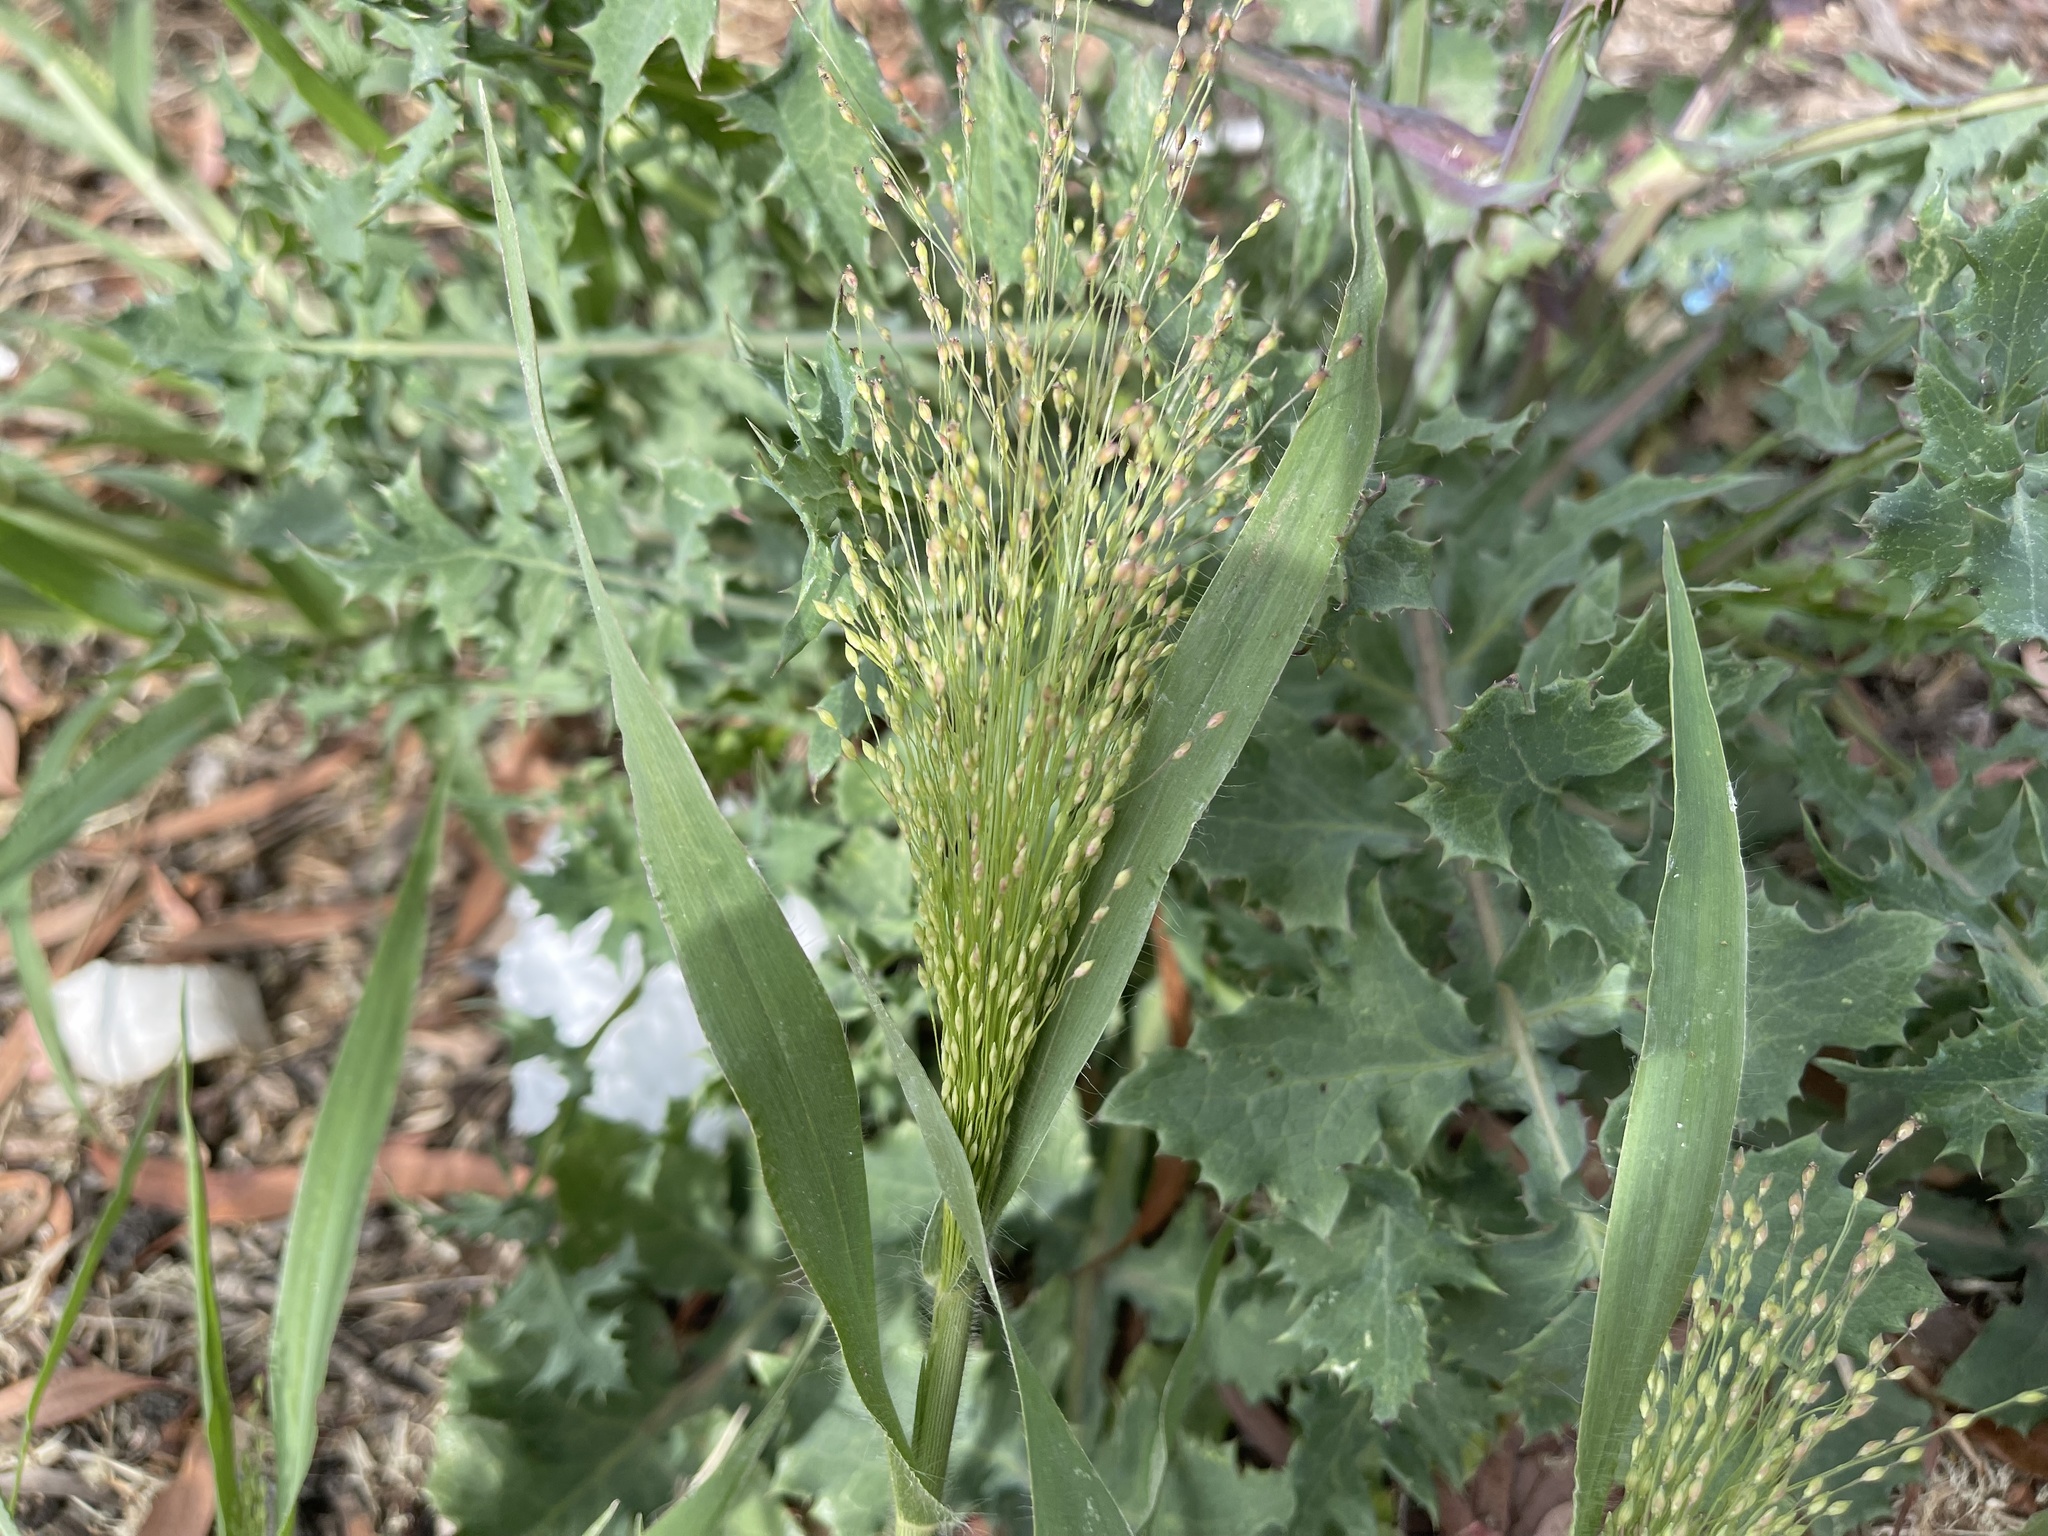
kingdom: Plantae
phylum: Tracheophyta
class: Liliopsida
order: Poales
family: Poaceae
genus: Panicum
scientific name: Panicum capillare
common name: Witch-grass
